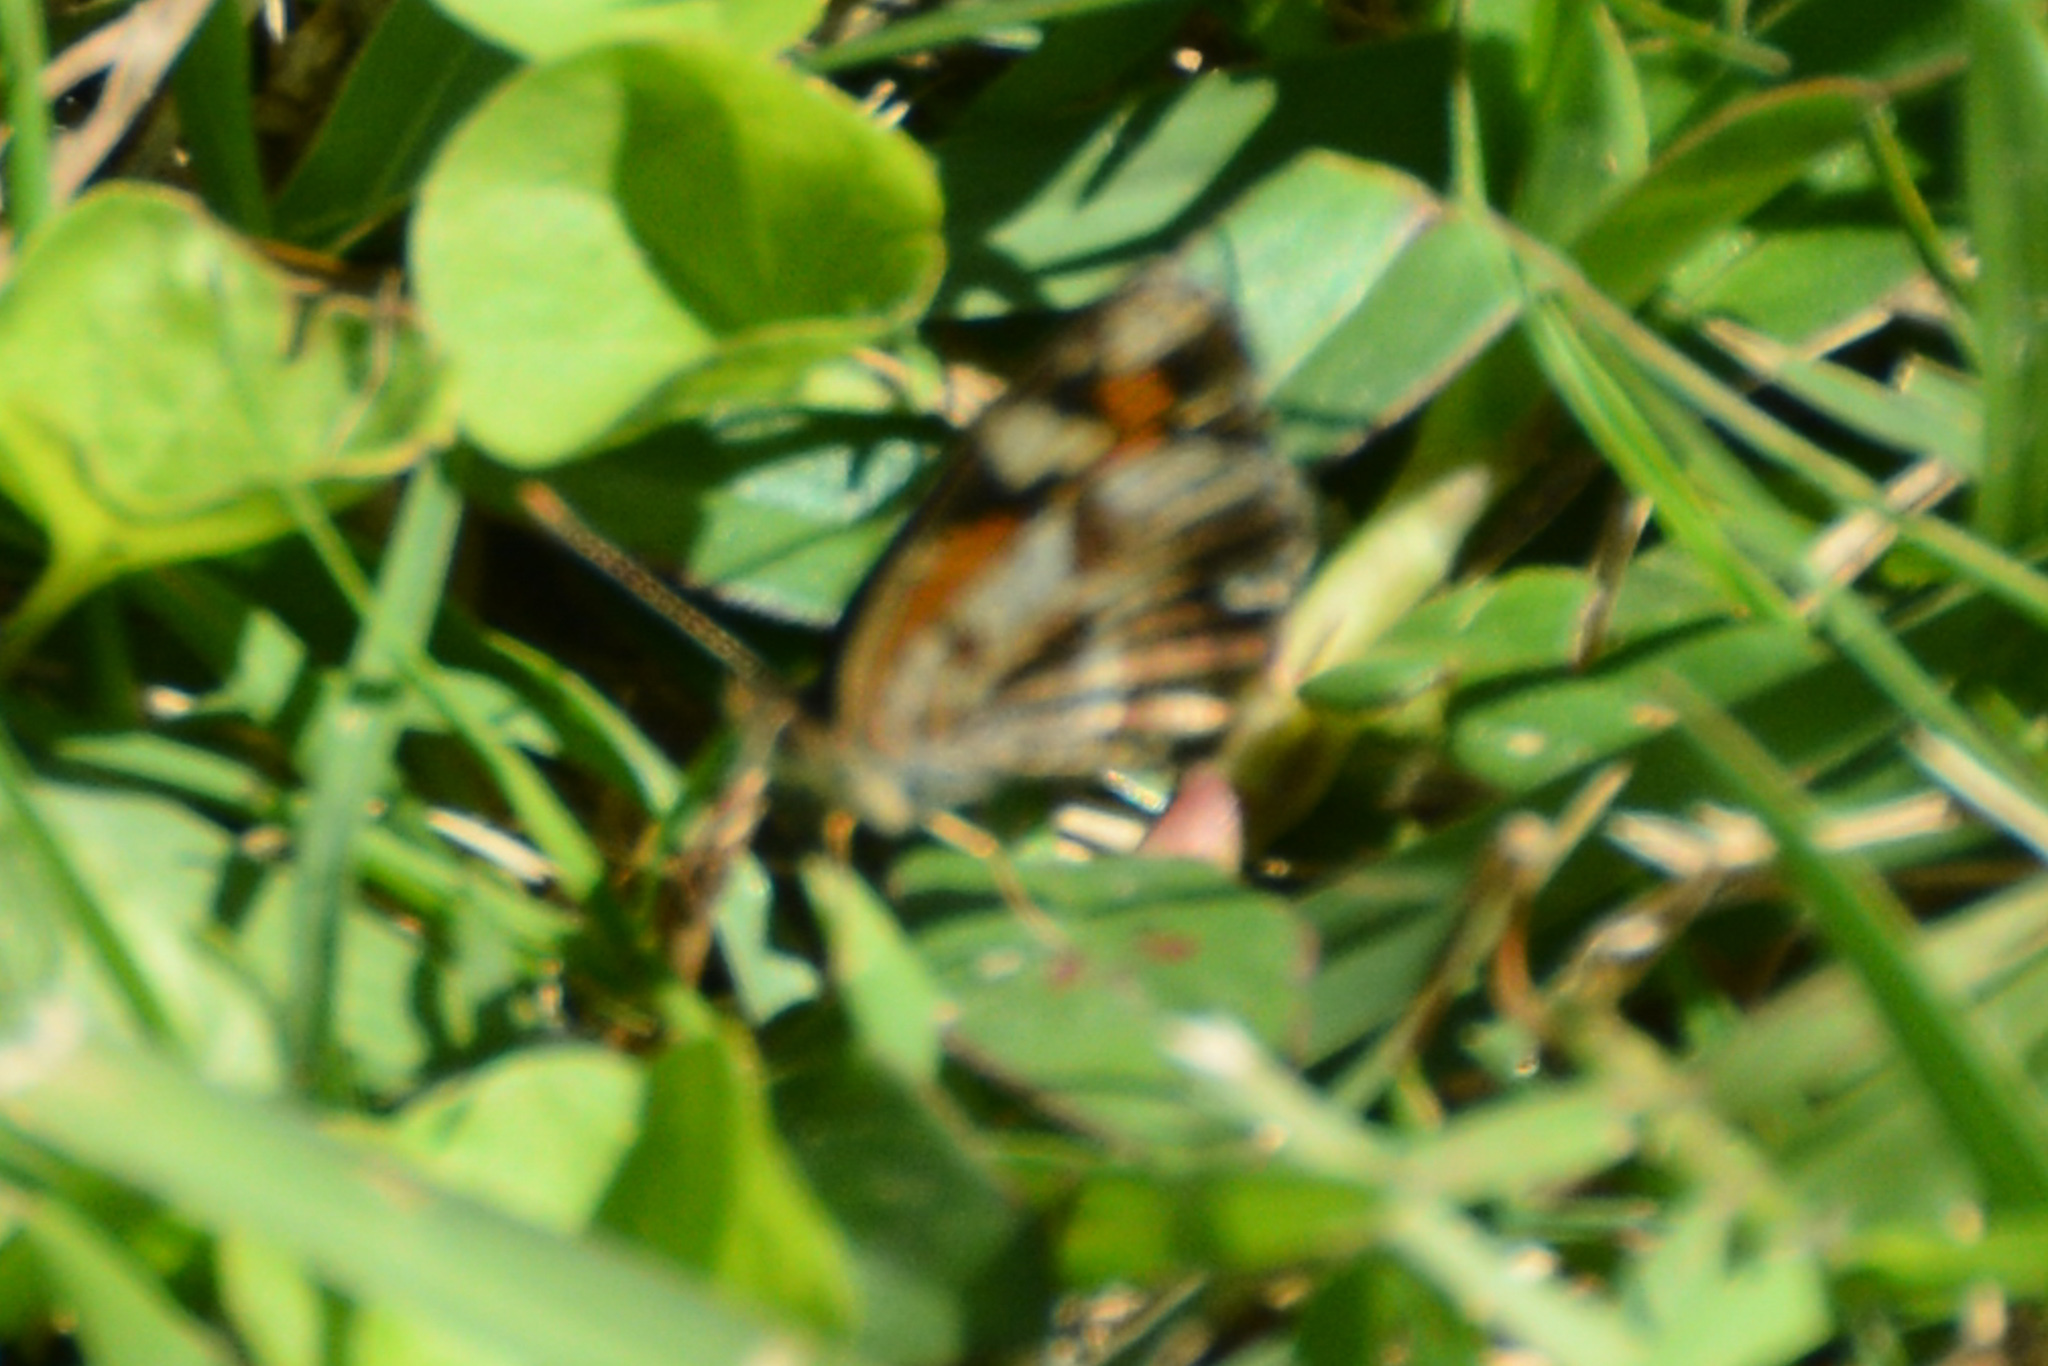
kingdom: Animalia
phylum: Arthropoda
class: Insecta
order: Lepidoptera
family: Nymphalidae
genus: Phyciodes
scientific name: Phyciodes phaon
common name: Phaon crescent
